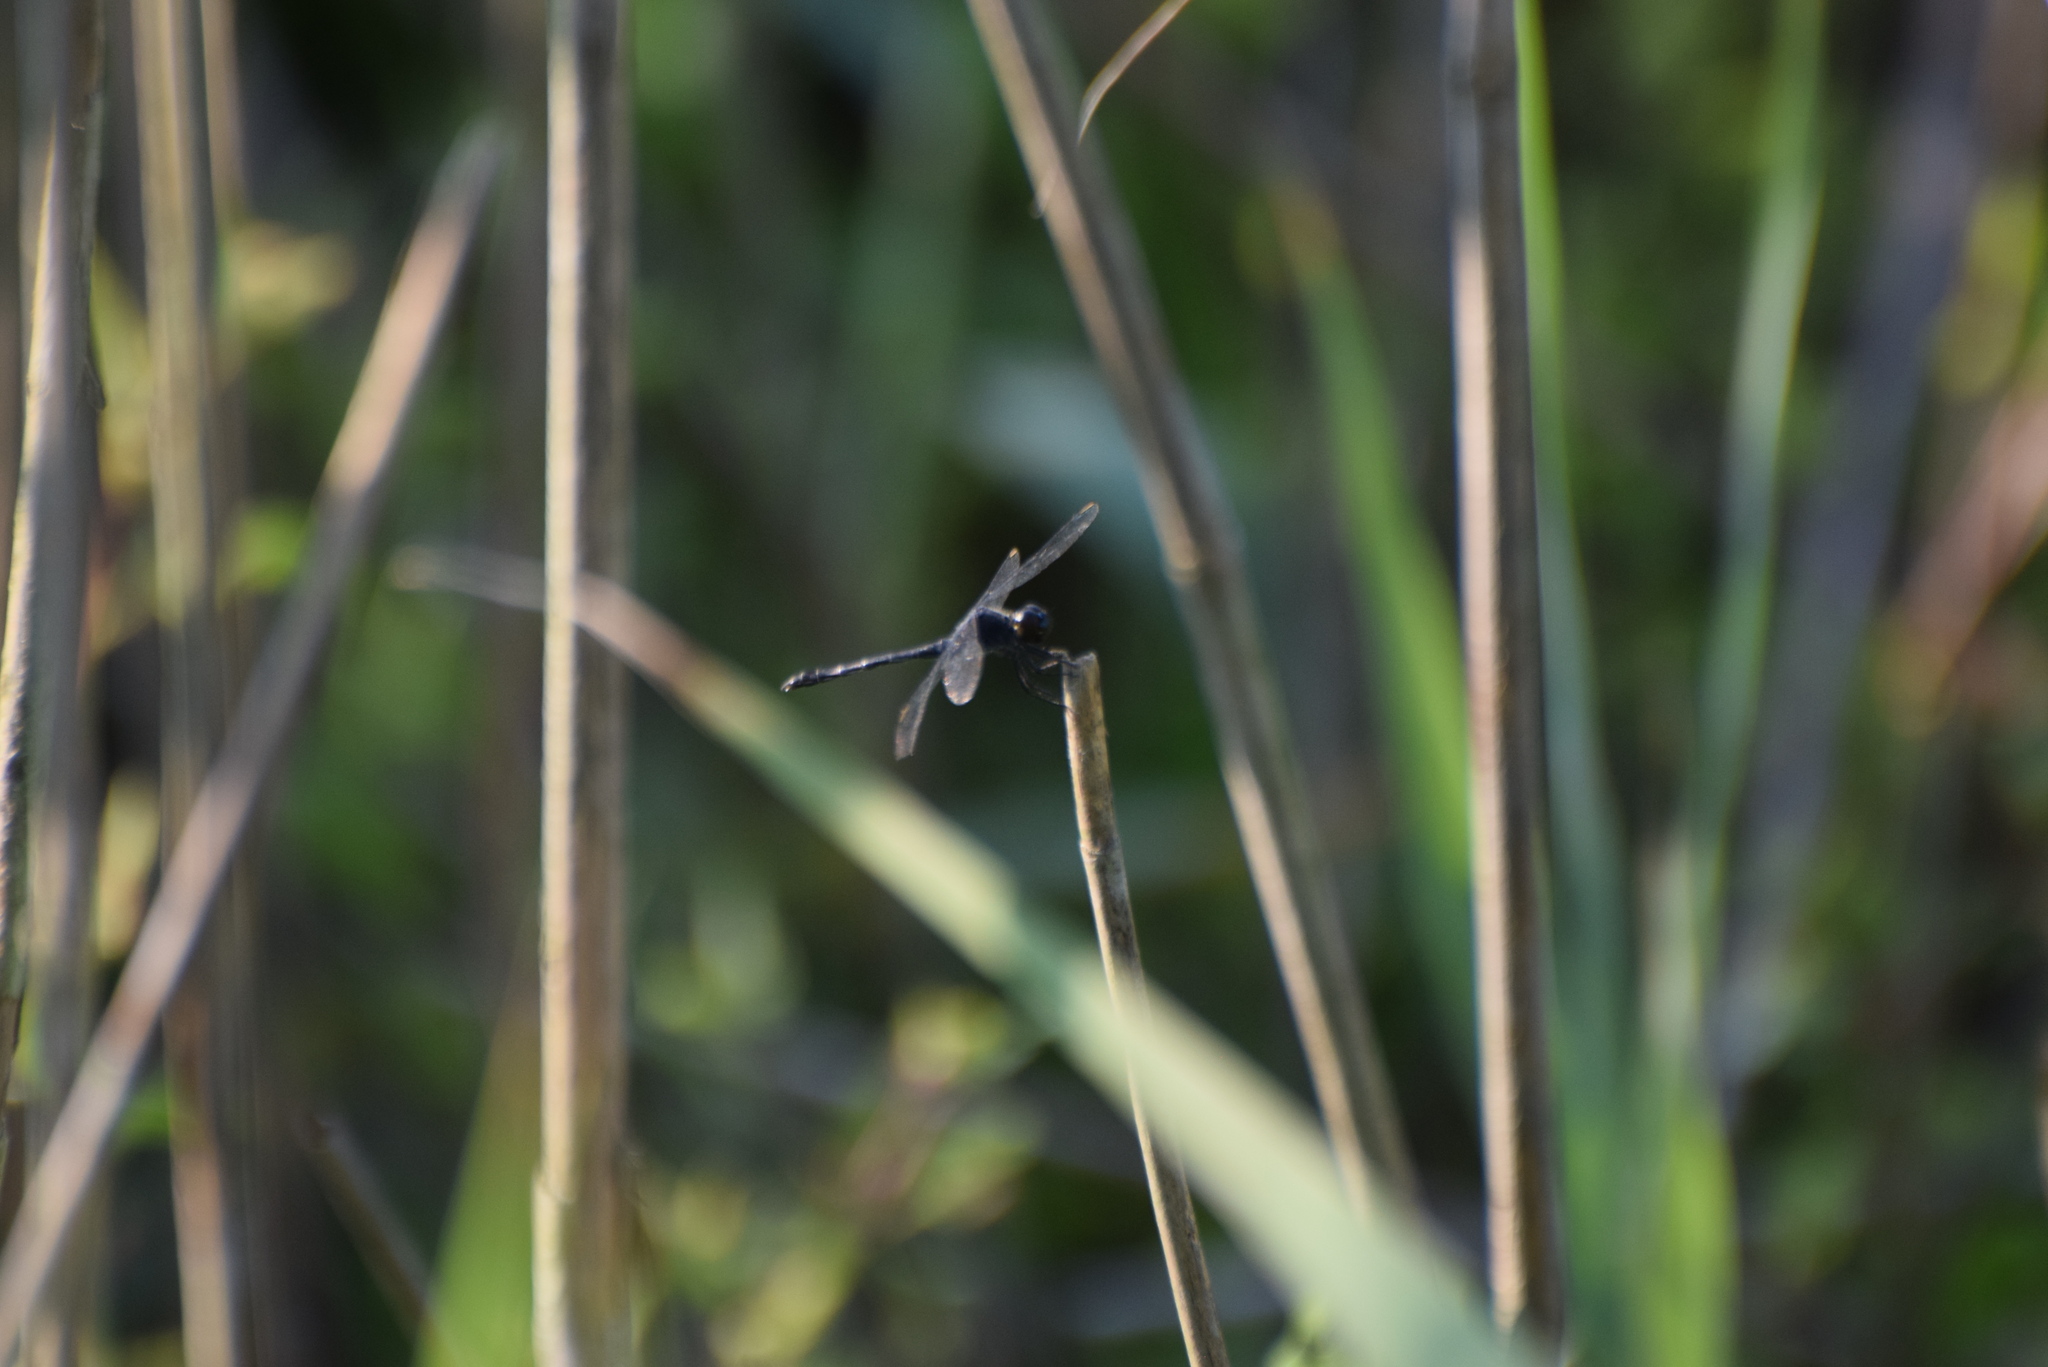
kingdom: Animalia
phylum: Arthropoda
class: Insecta
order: Odonata
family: Libellulidae
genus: Erythrodiplax
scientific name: Erythrodiplax berenice
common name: Seaside dragonlet
